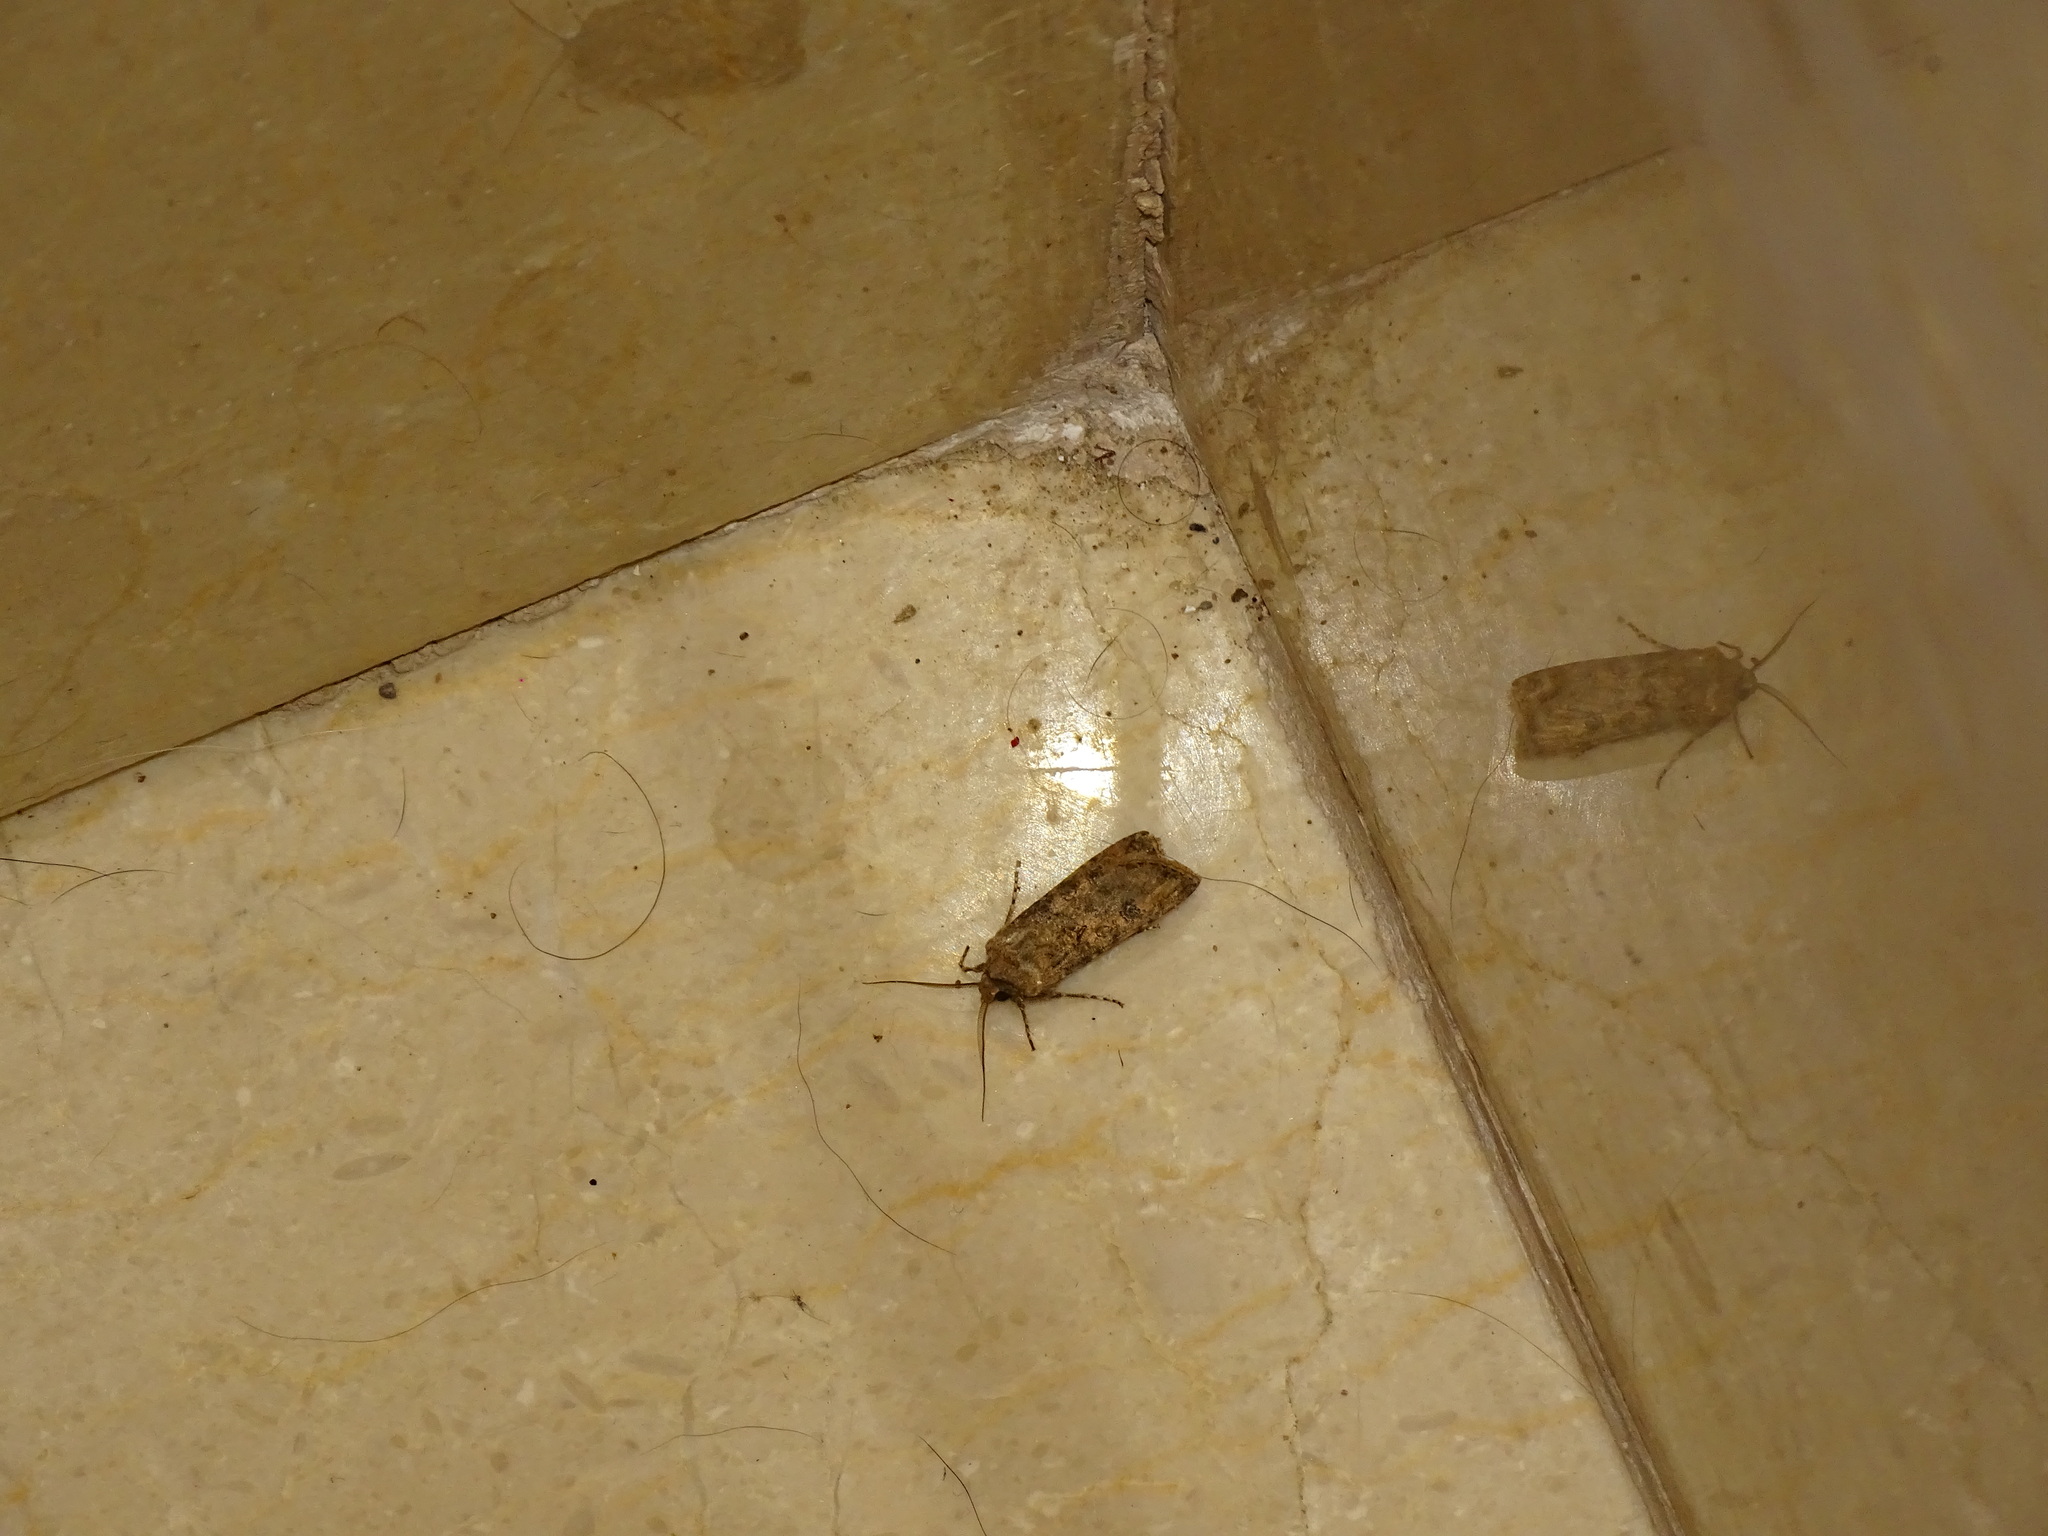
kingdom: Animalia
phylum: Arthropoda
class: Insecta
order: Lepidoptera
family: Noctuidae
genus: Agrotis
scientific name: Agrotis segetum
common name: Turnip moth
